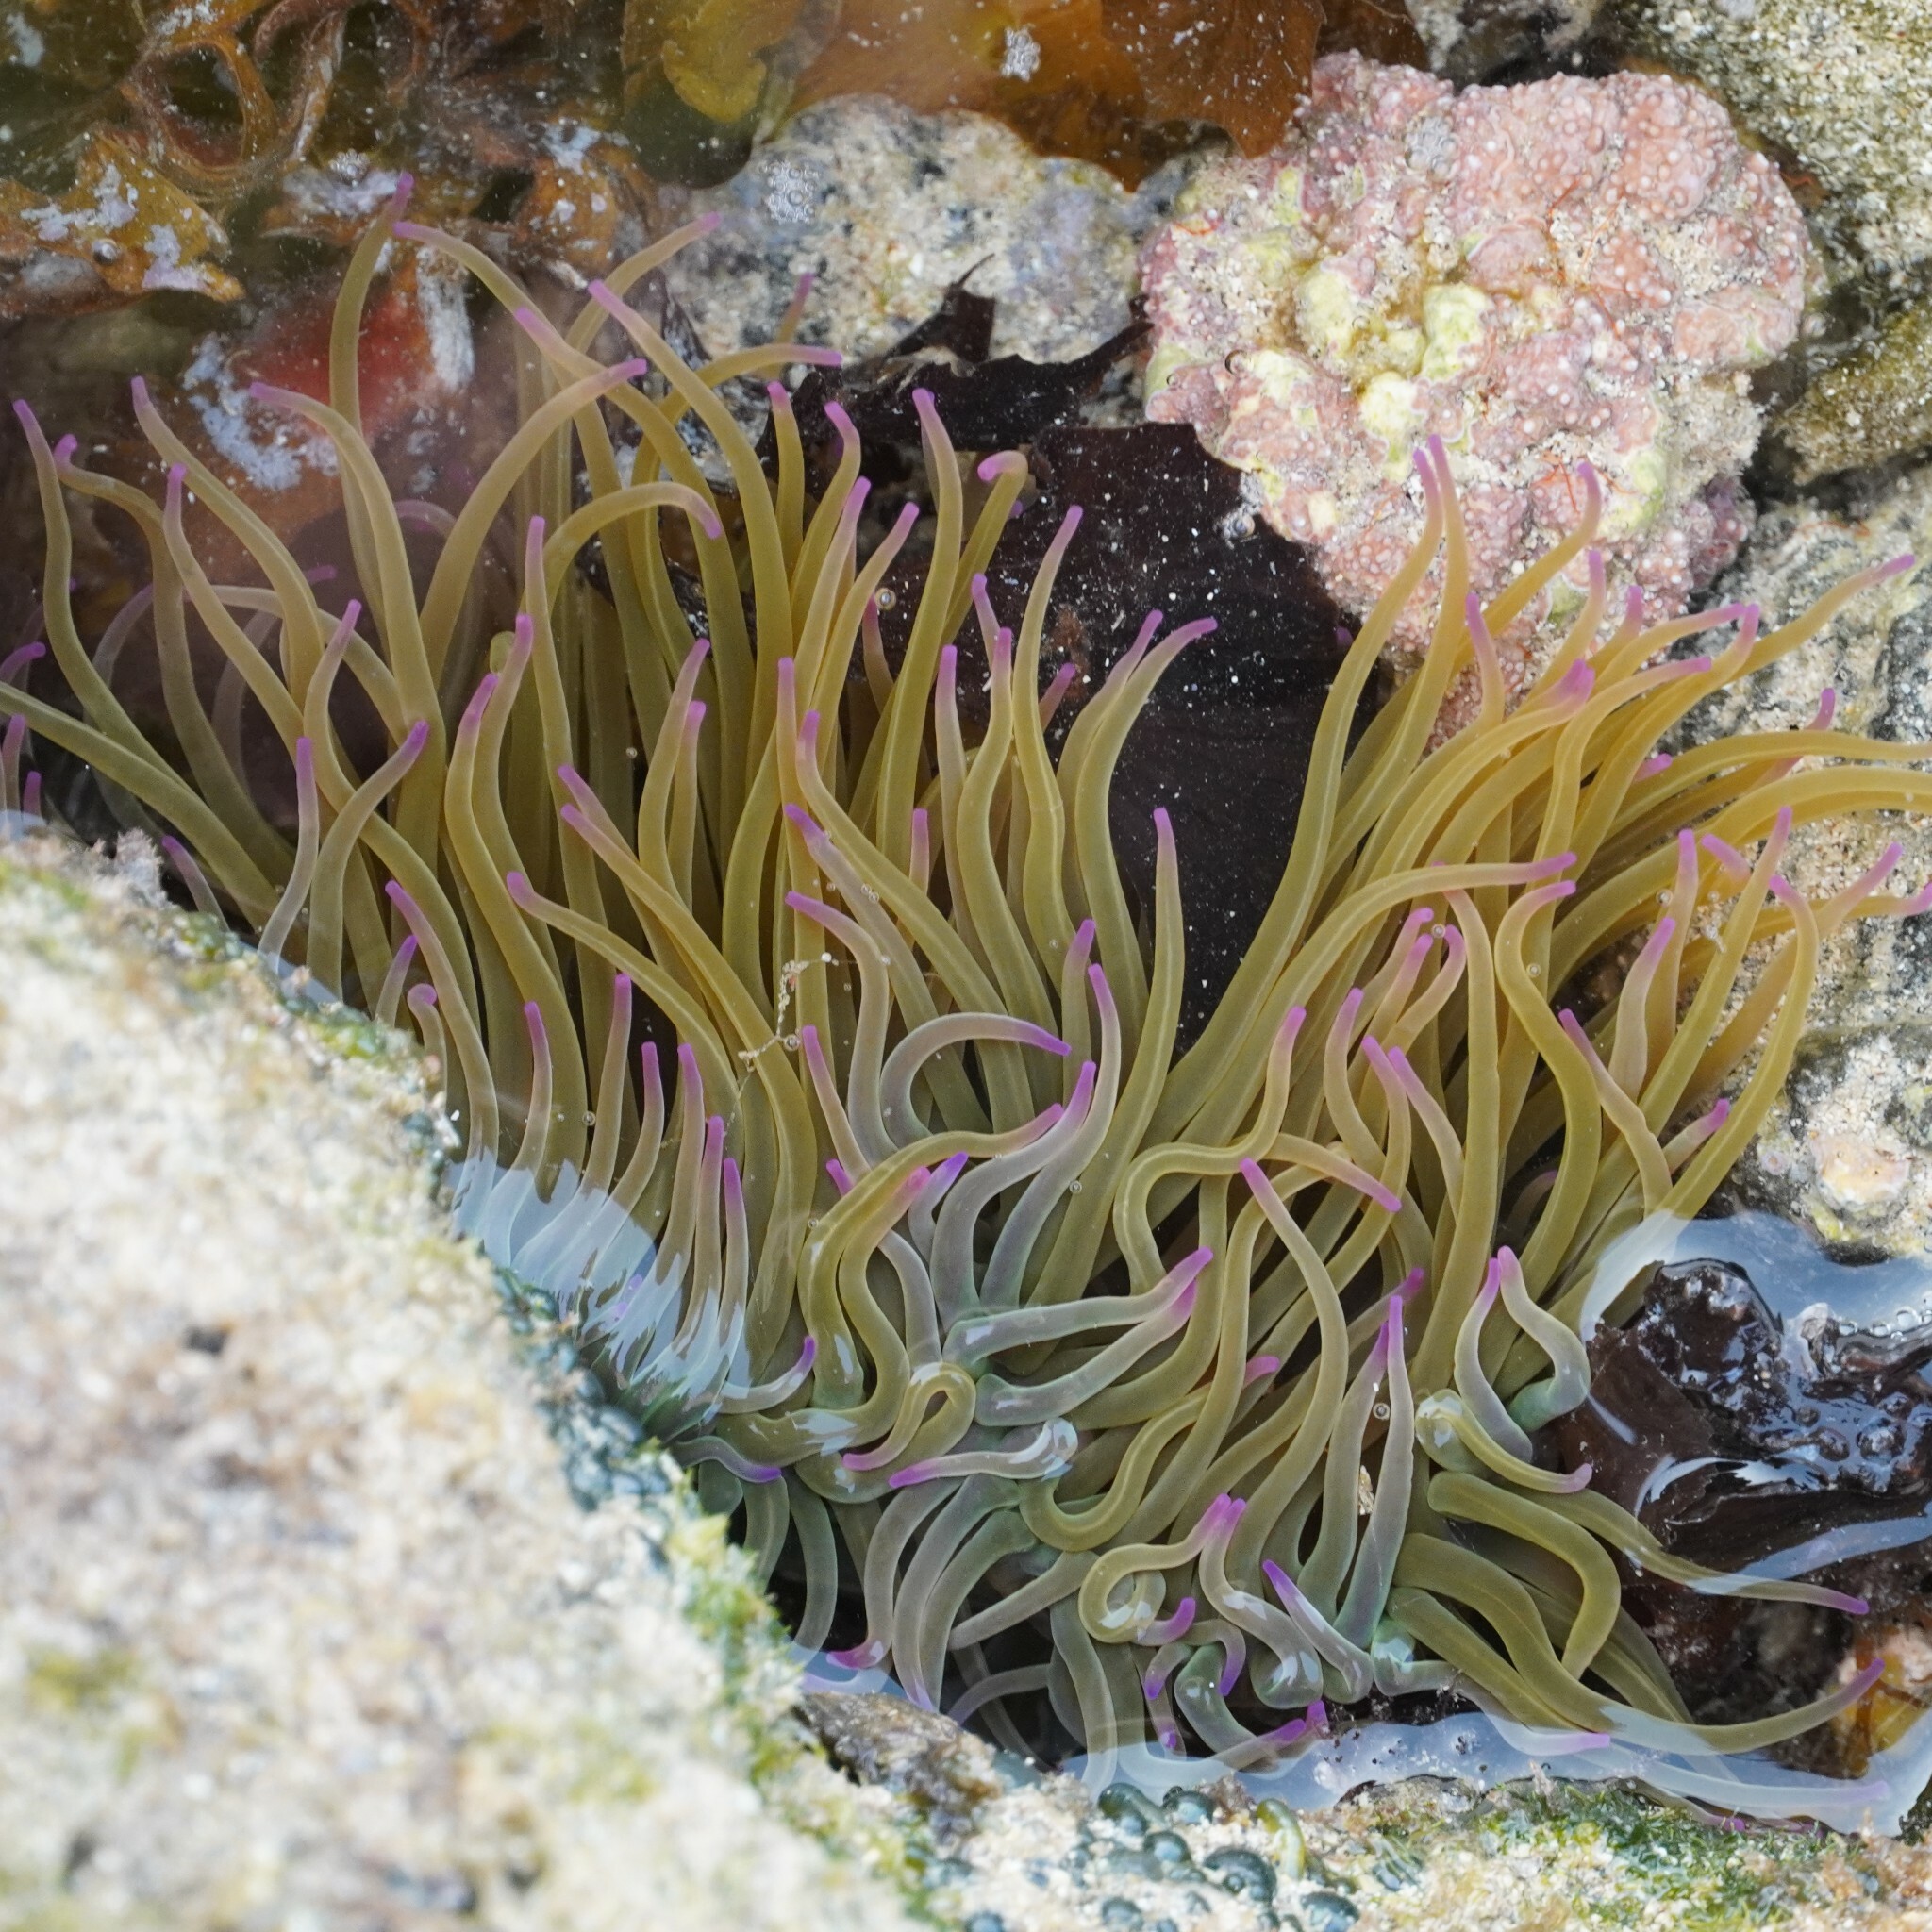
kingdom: Animalia
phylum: Cnidaria
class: Anthozoa
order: Actiniaria
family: Actiniidae
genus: Anemonia
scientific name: Anemonia viridis
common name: Snakelocks anemone
